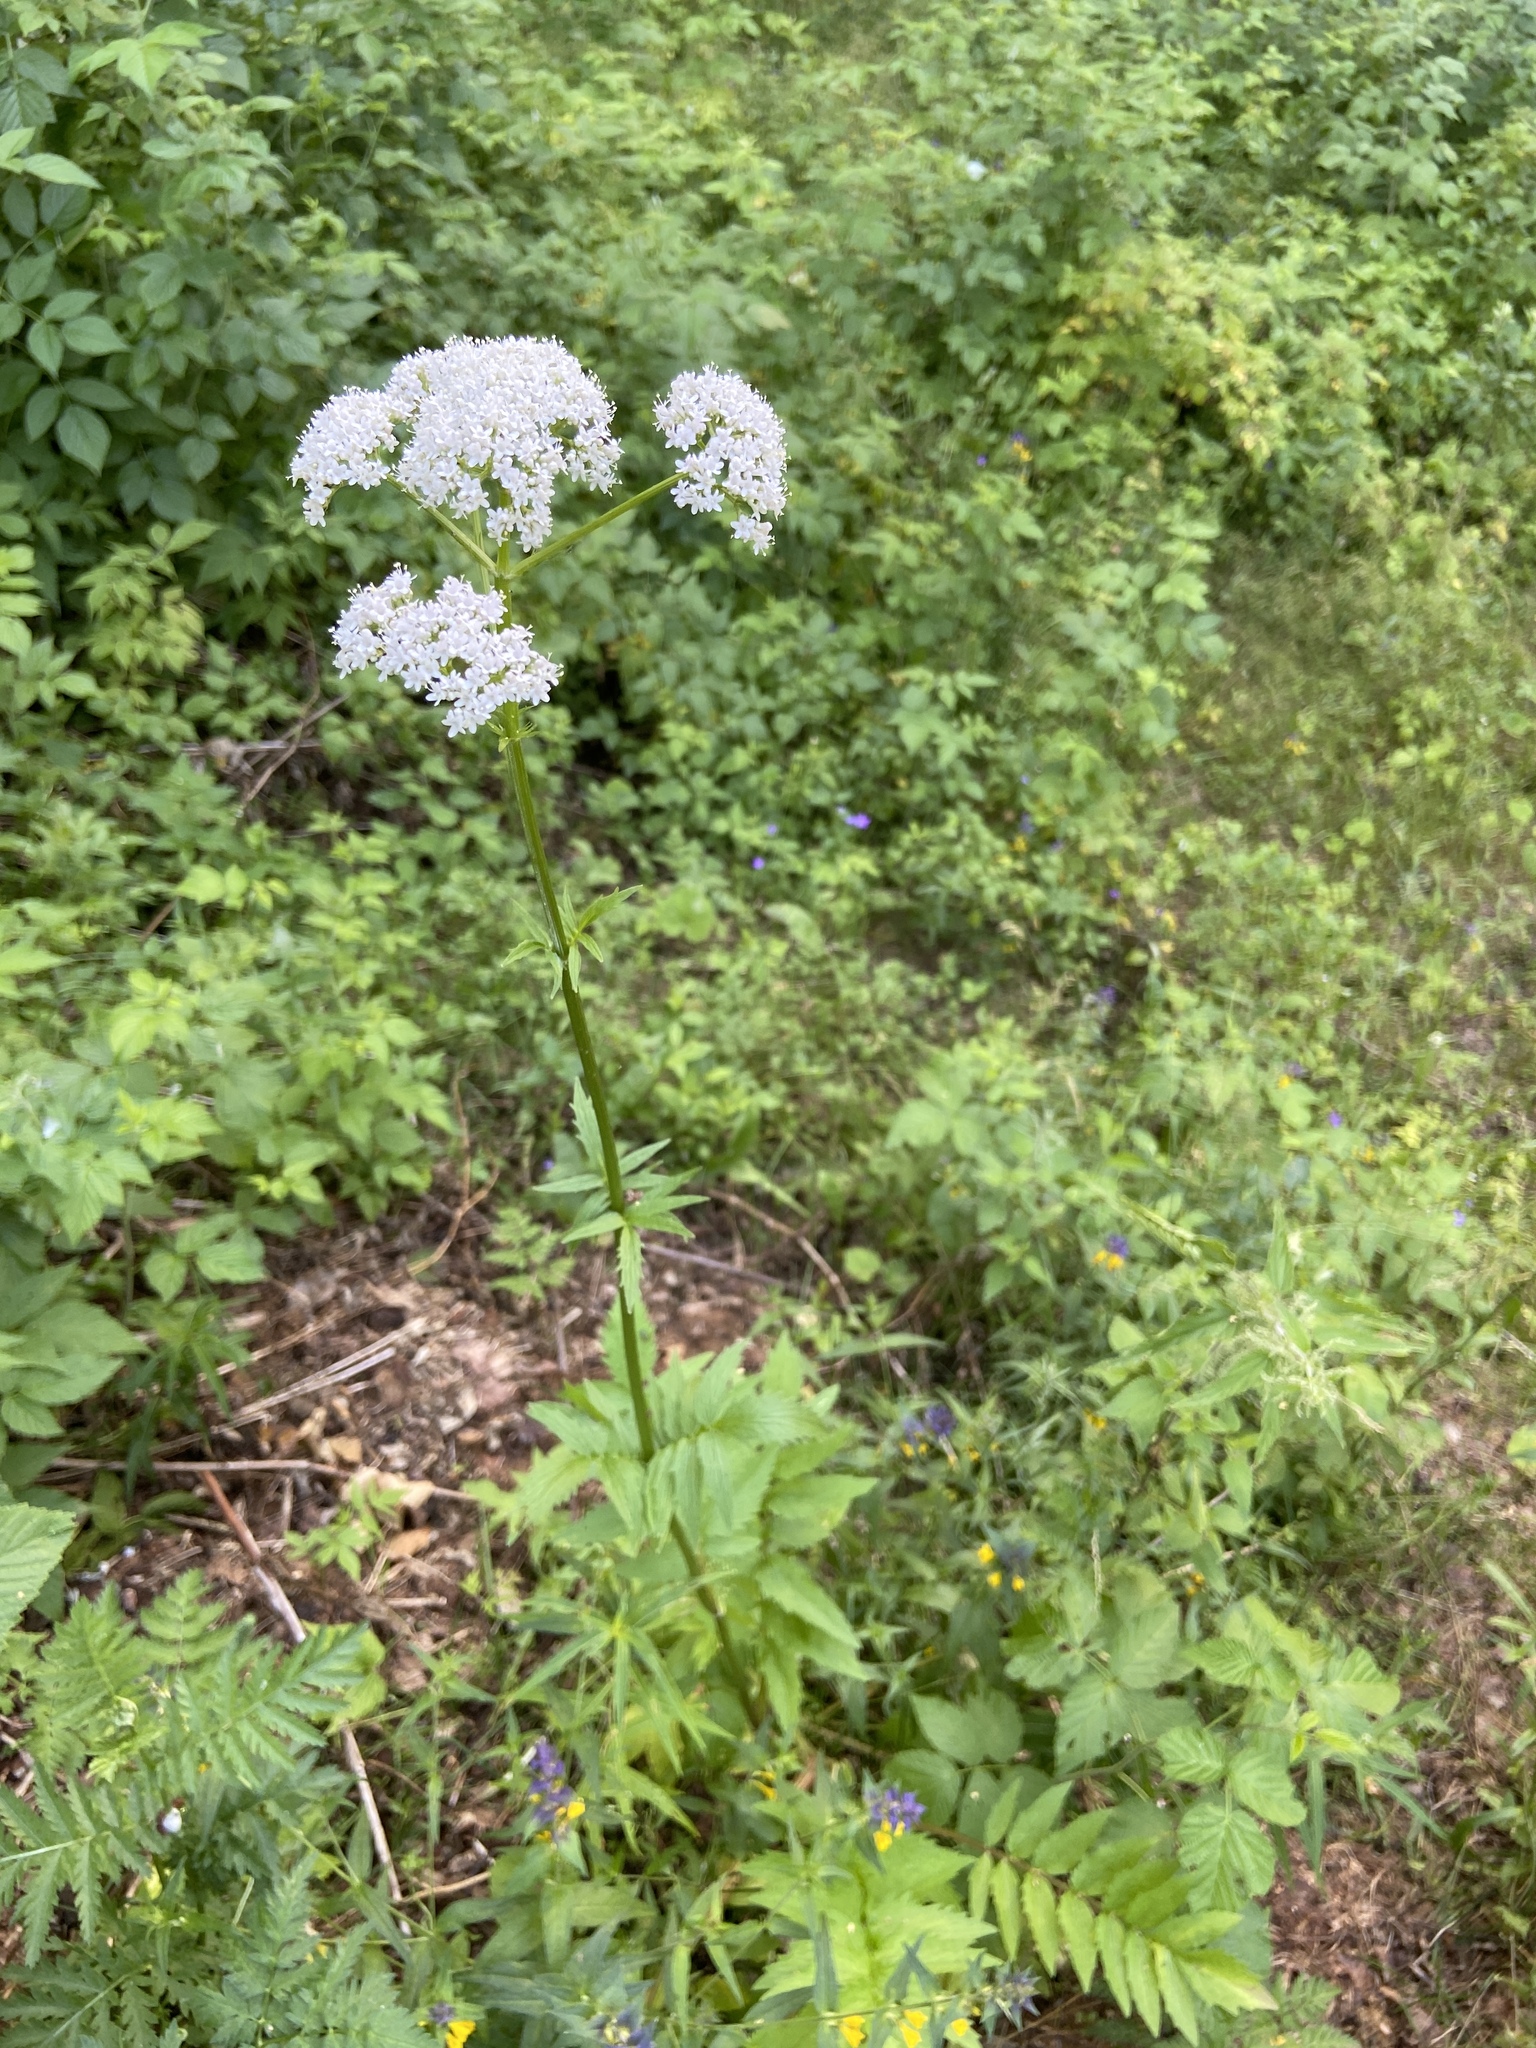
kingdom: Plantae
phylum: Tracheophyta
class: Magnoliopsida
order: Dipsacales
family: Caprifoliaceae
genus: Valeriana
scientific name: Valeriana officinalis
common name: Common valerian
